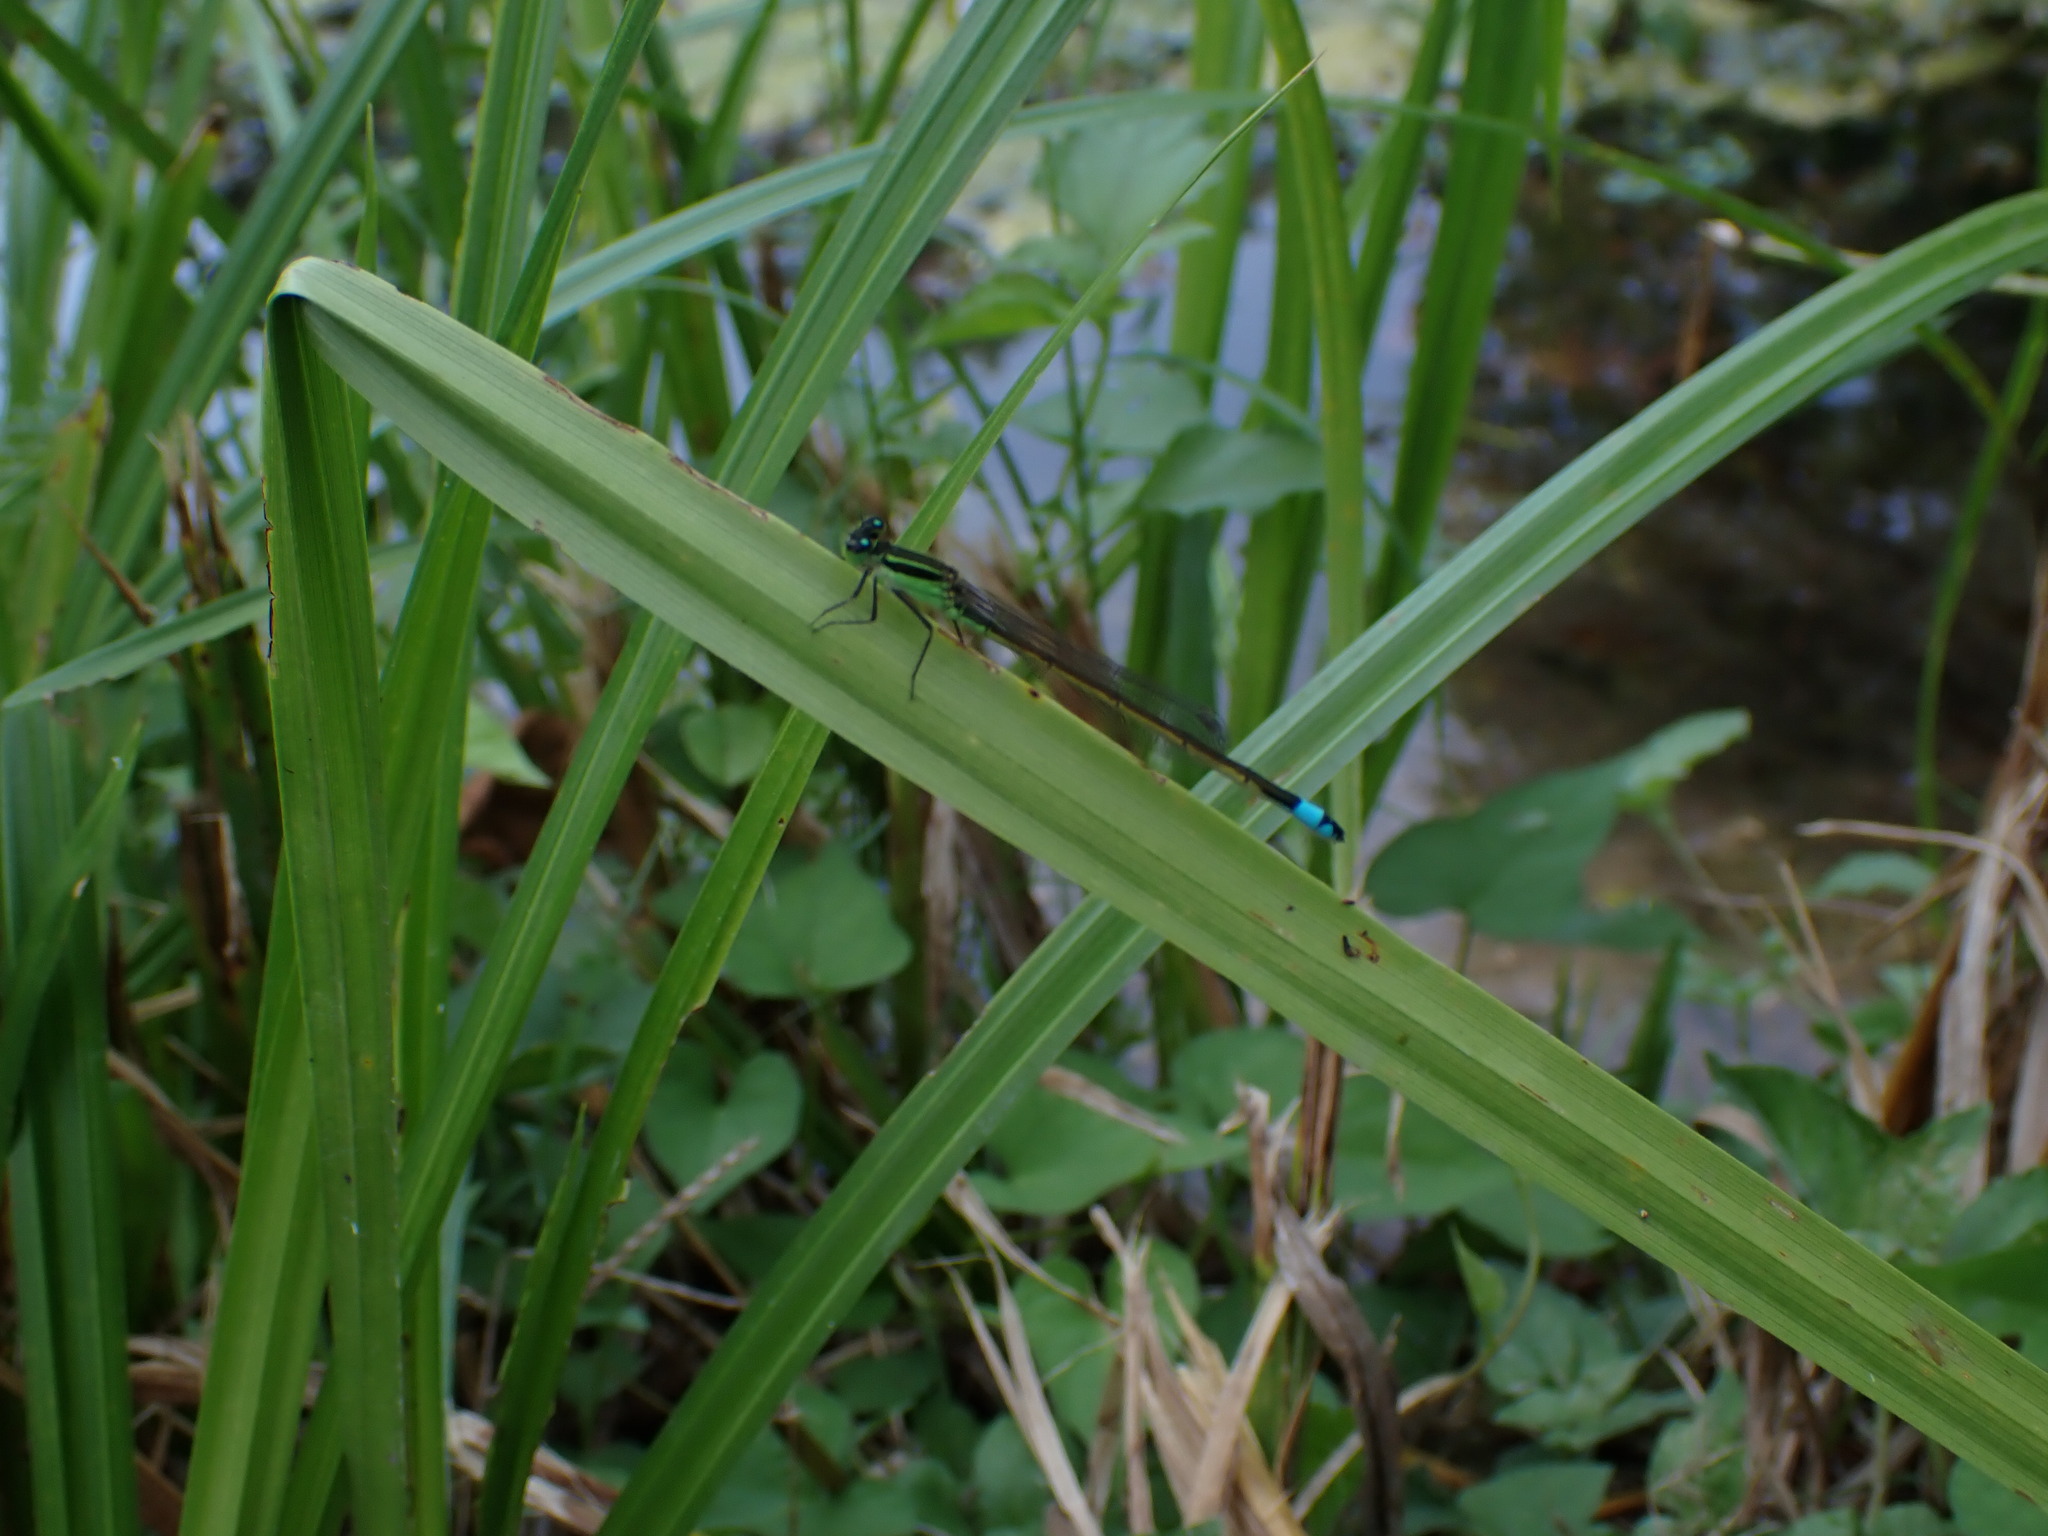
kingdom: Animalia
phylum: Arthropoda
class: Insecta
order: Odonata
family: Coenagrionidae
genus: Ischnura
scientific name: Ischnura ramburii
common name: Rambur's forktail
